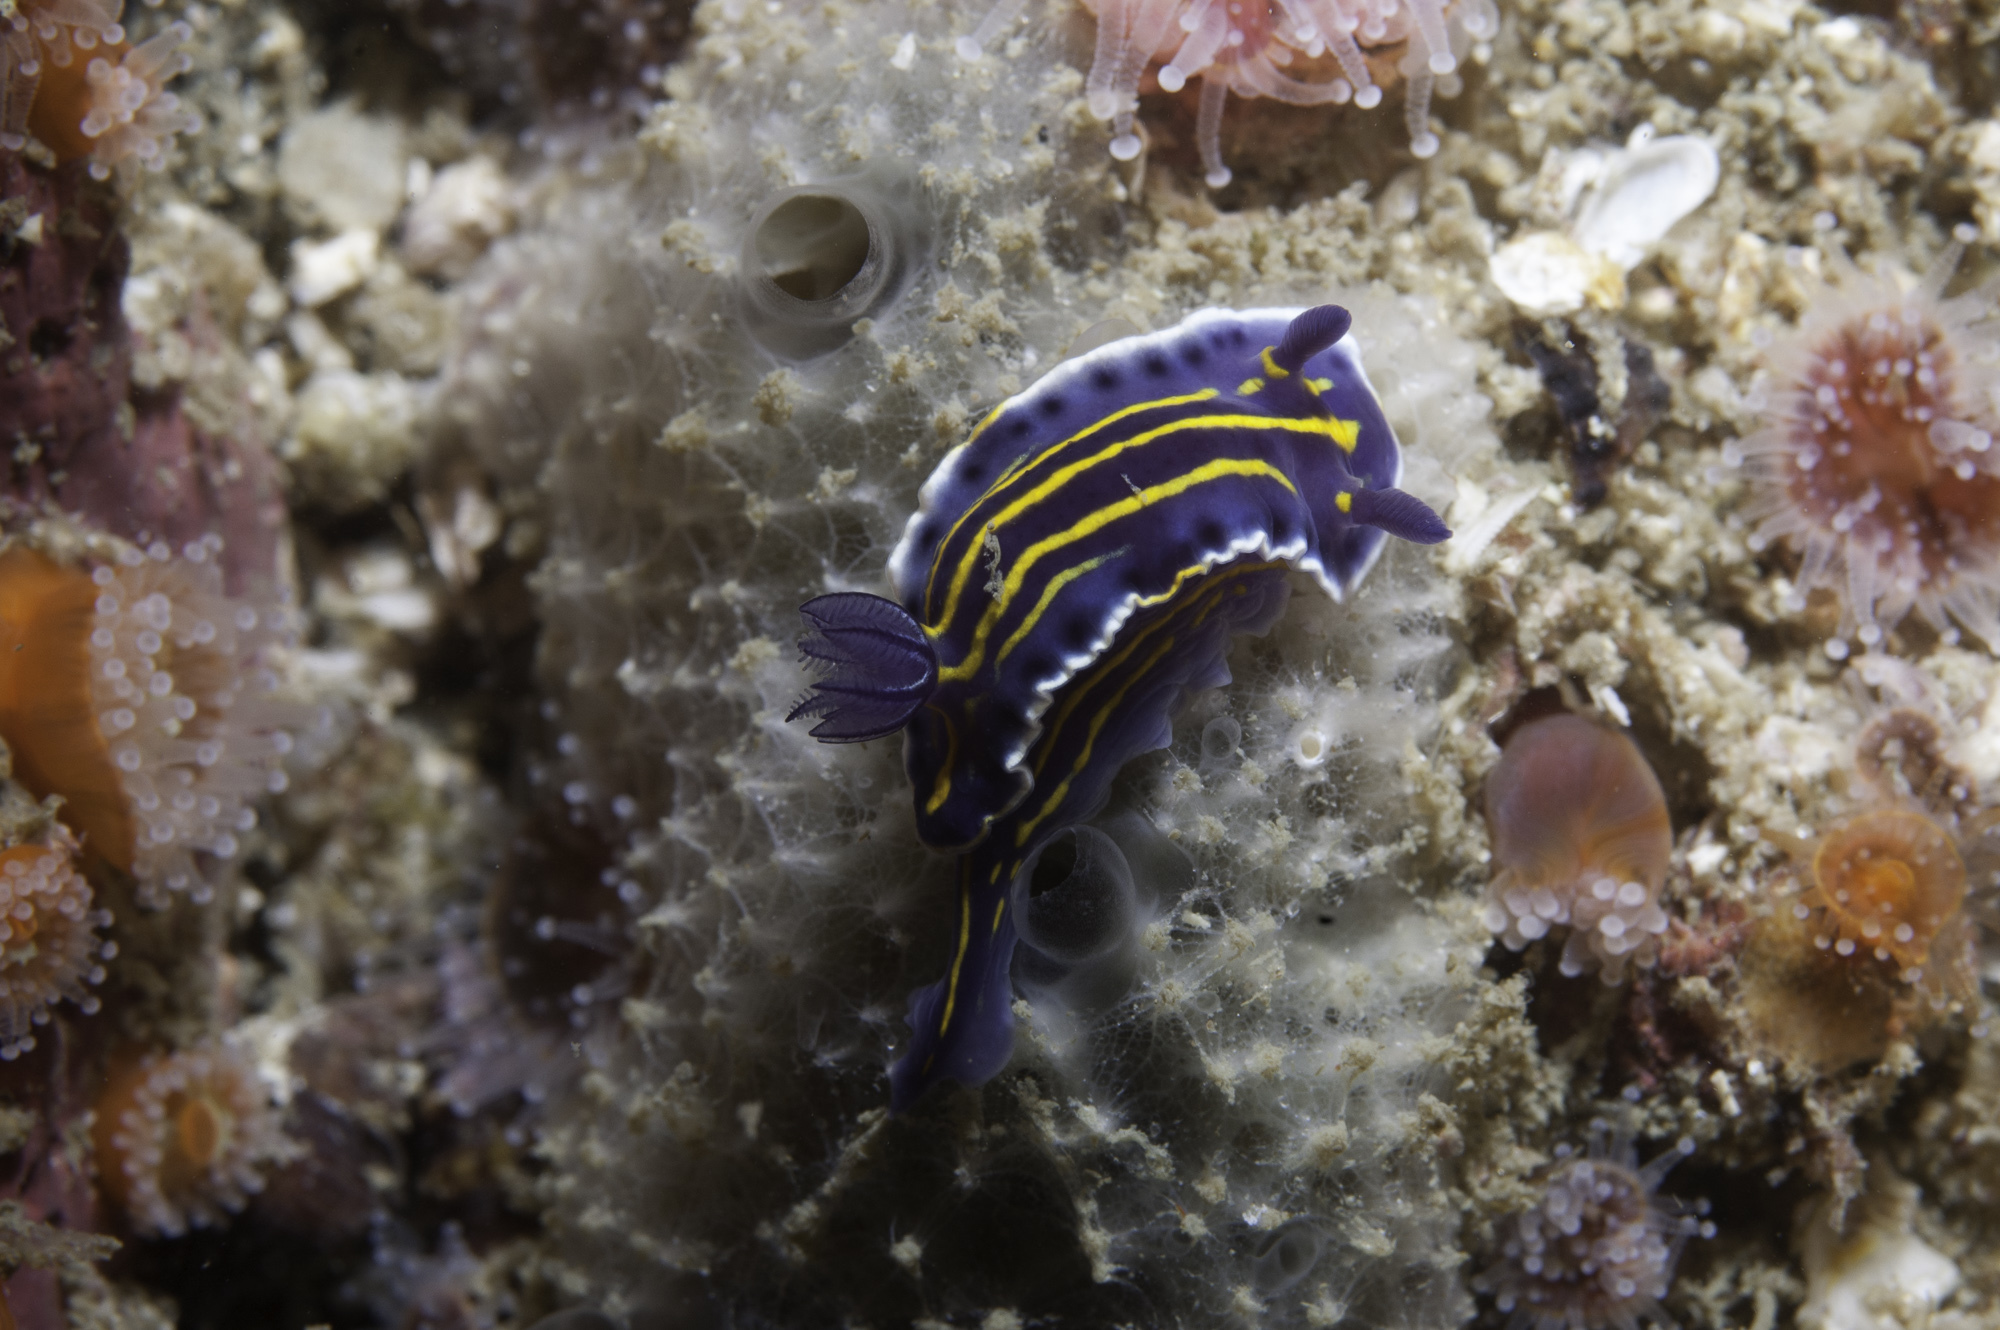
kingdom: Animalia
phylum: Mollusca
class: Gastropoda
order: Nudibranchia
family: Chromodorididae
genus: Felimare
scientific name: Felimare lajensis
